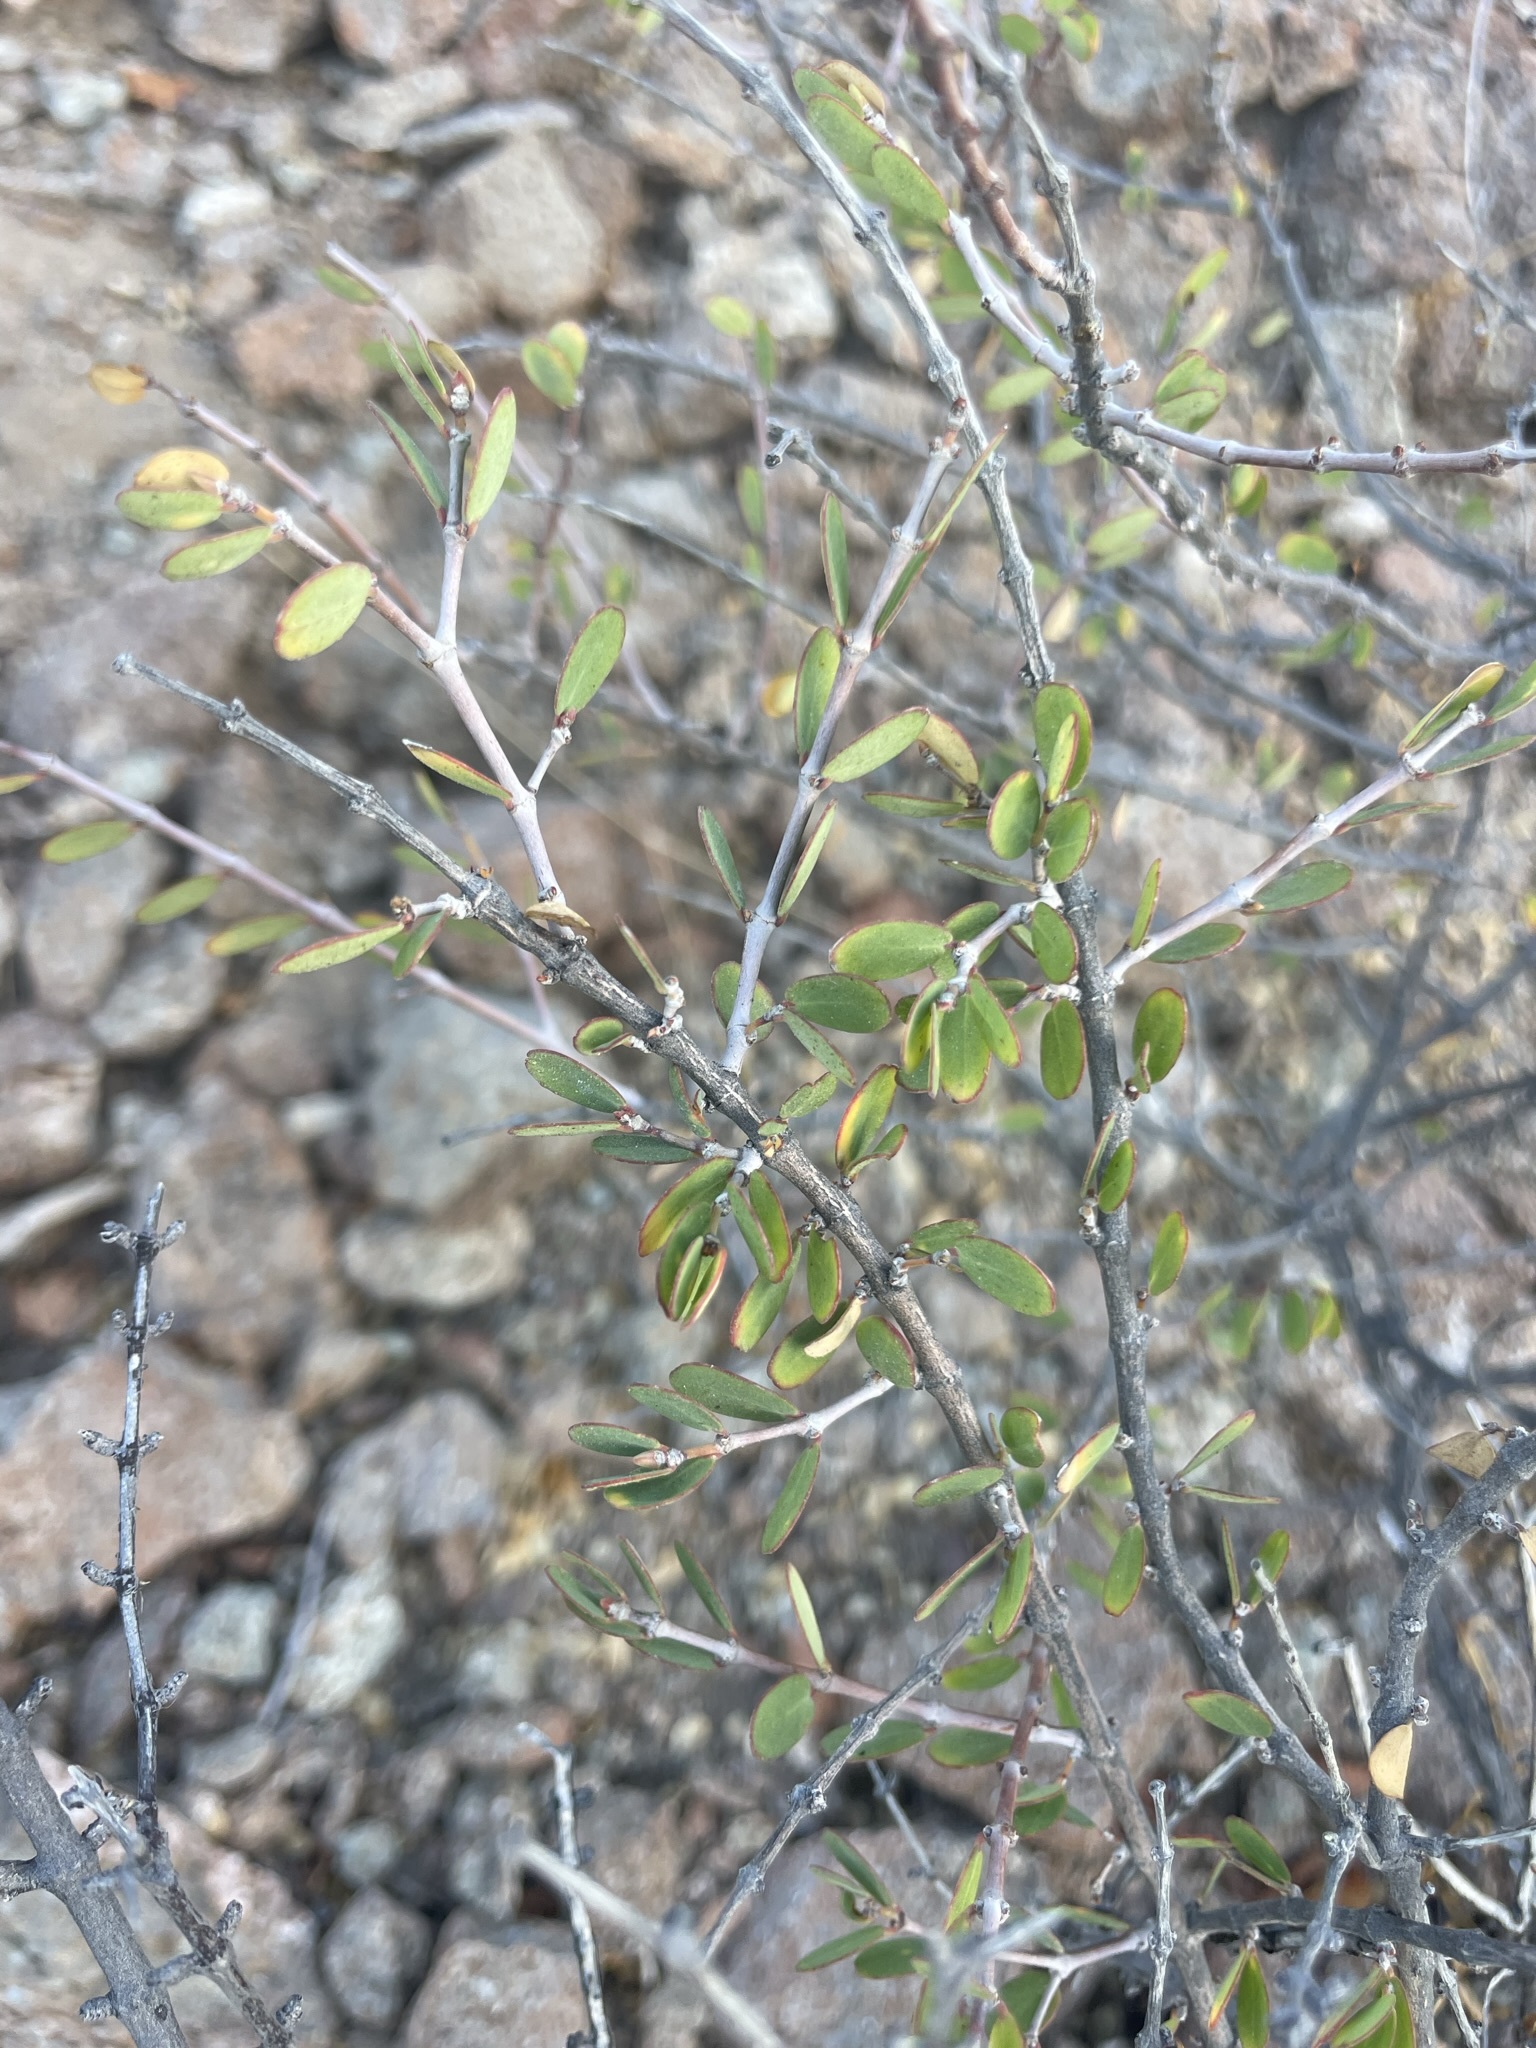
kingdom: Plantae
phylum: Tracheophyta
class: Magnoliopsida
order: Malpighiales
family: Euphorbiaceae
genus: Euphorbia
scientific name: Euphorbia magdalenae
